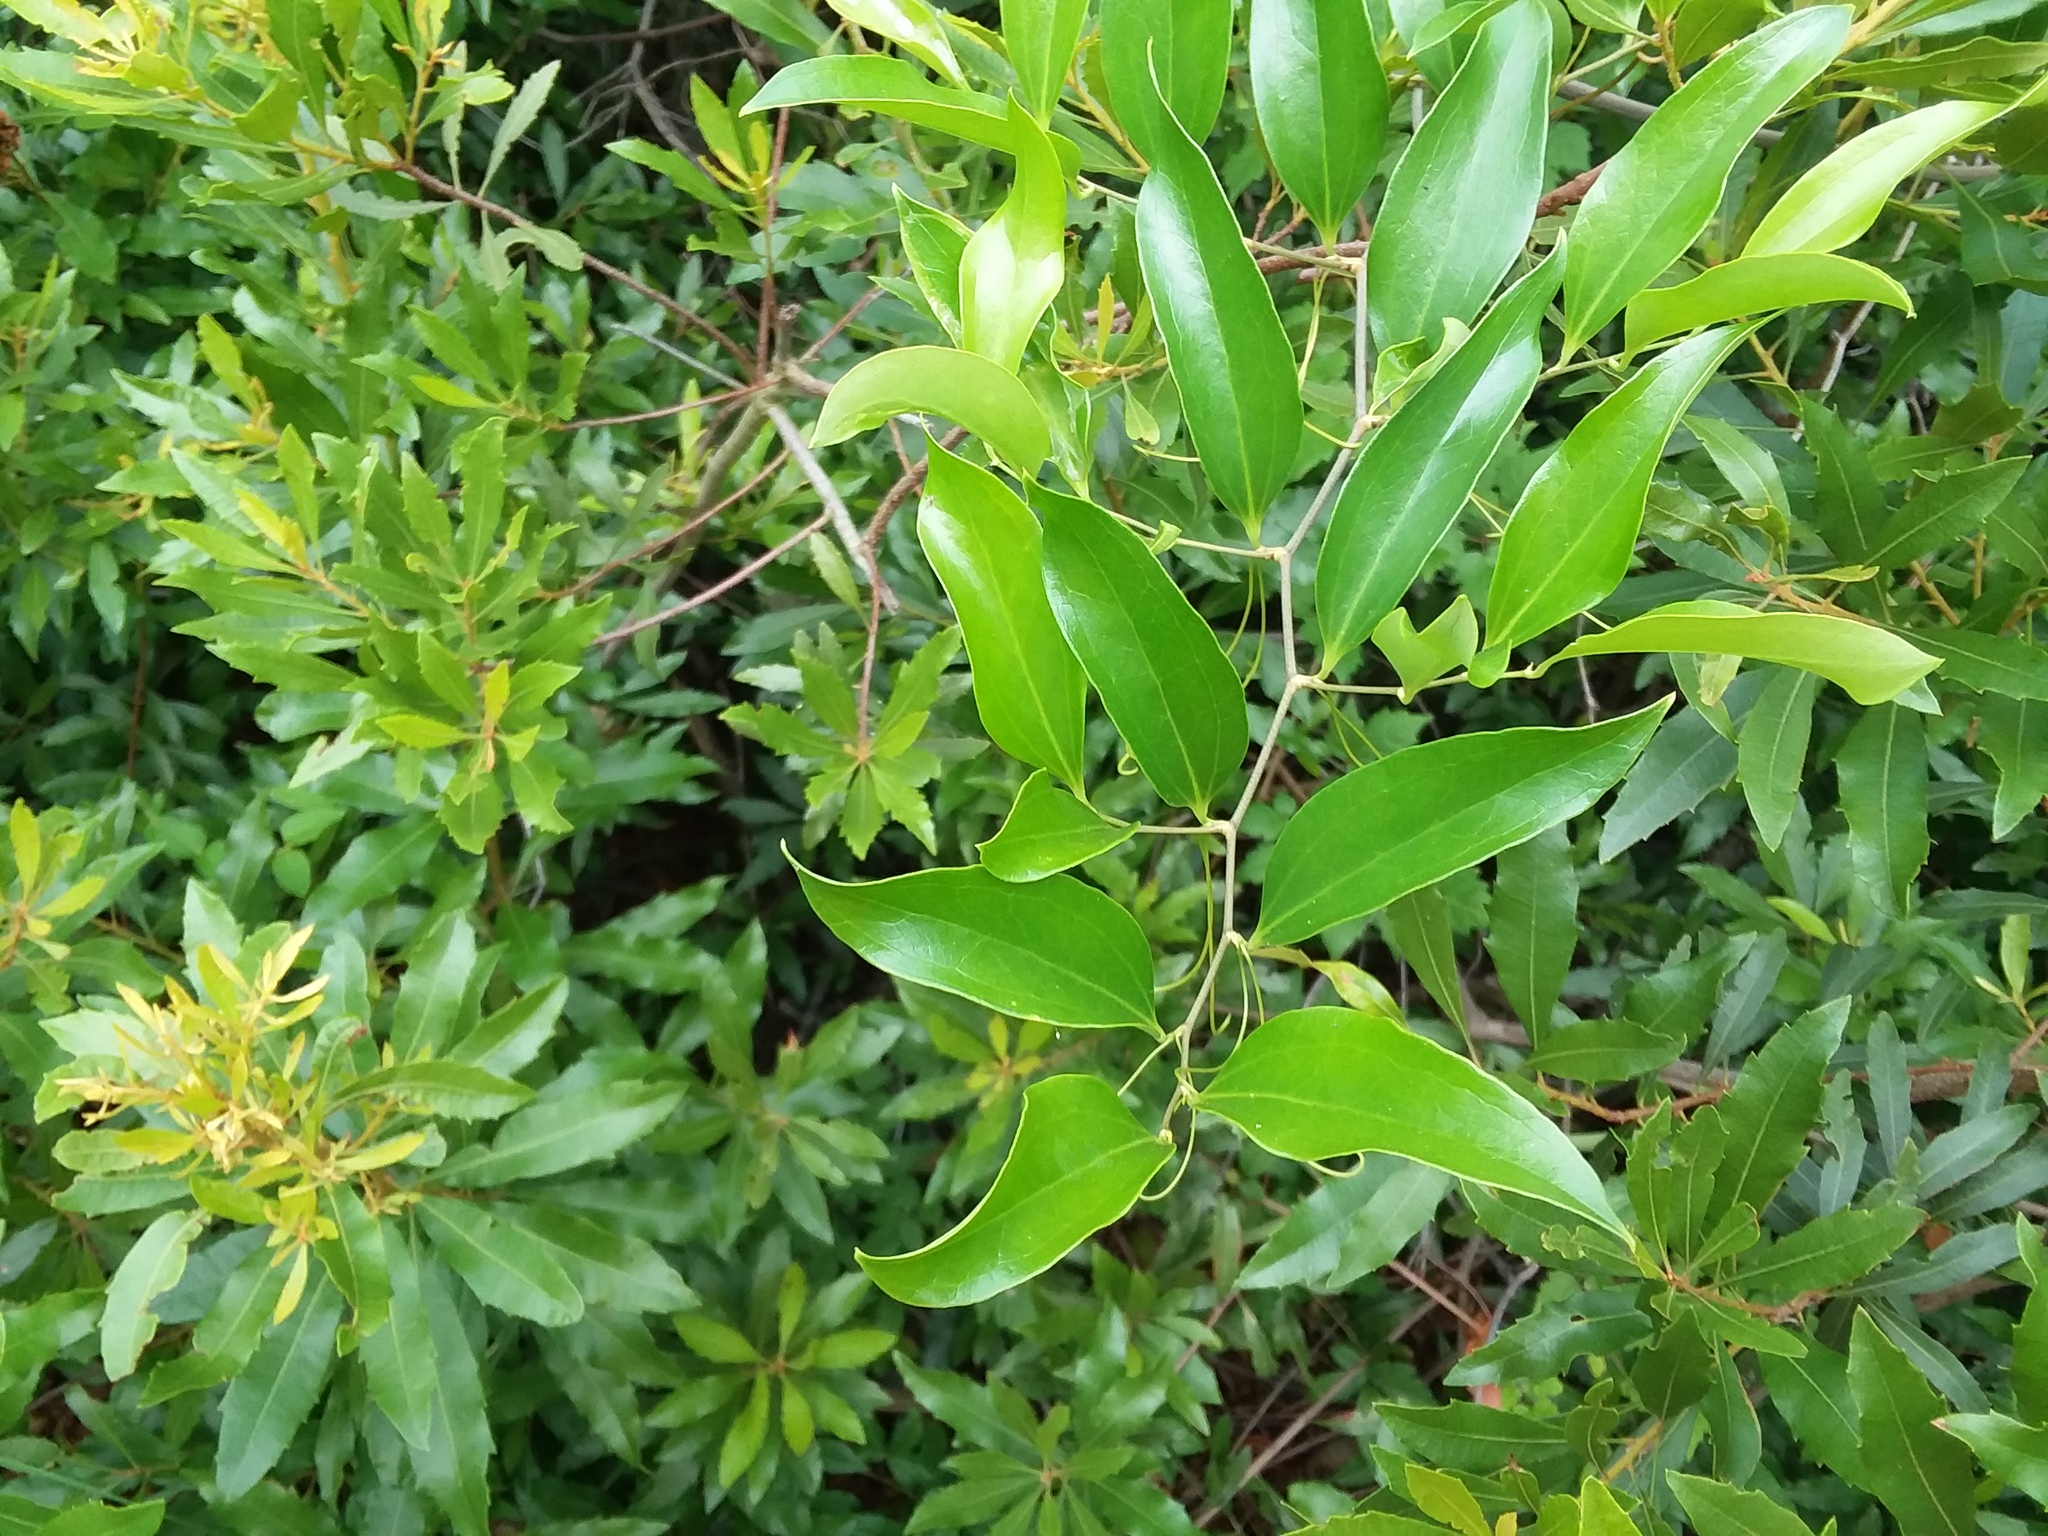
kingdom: Plantae
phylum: Tracheophyta
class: Liliopsida
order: Liliales
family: Smilacaceae
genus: Smilax
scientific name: Smilax auriculata
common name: Wild bamboo
